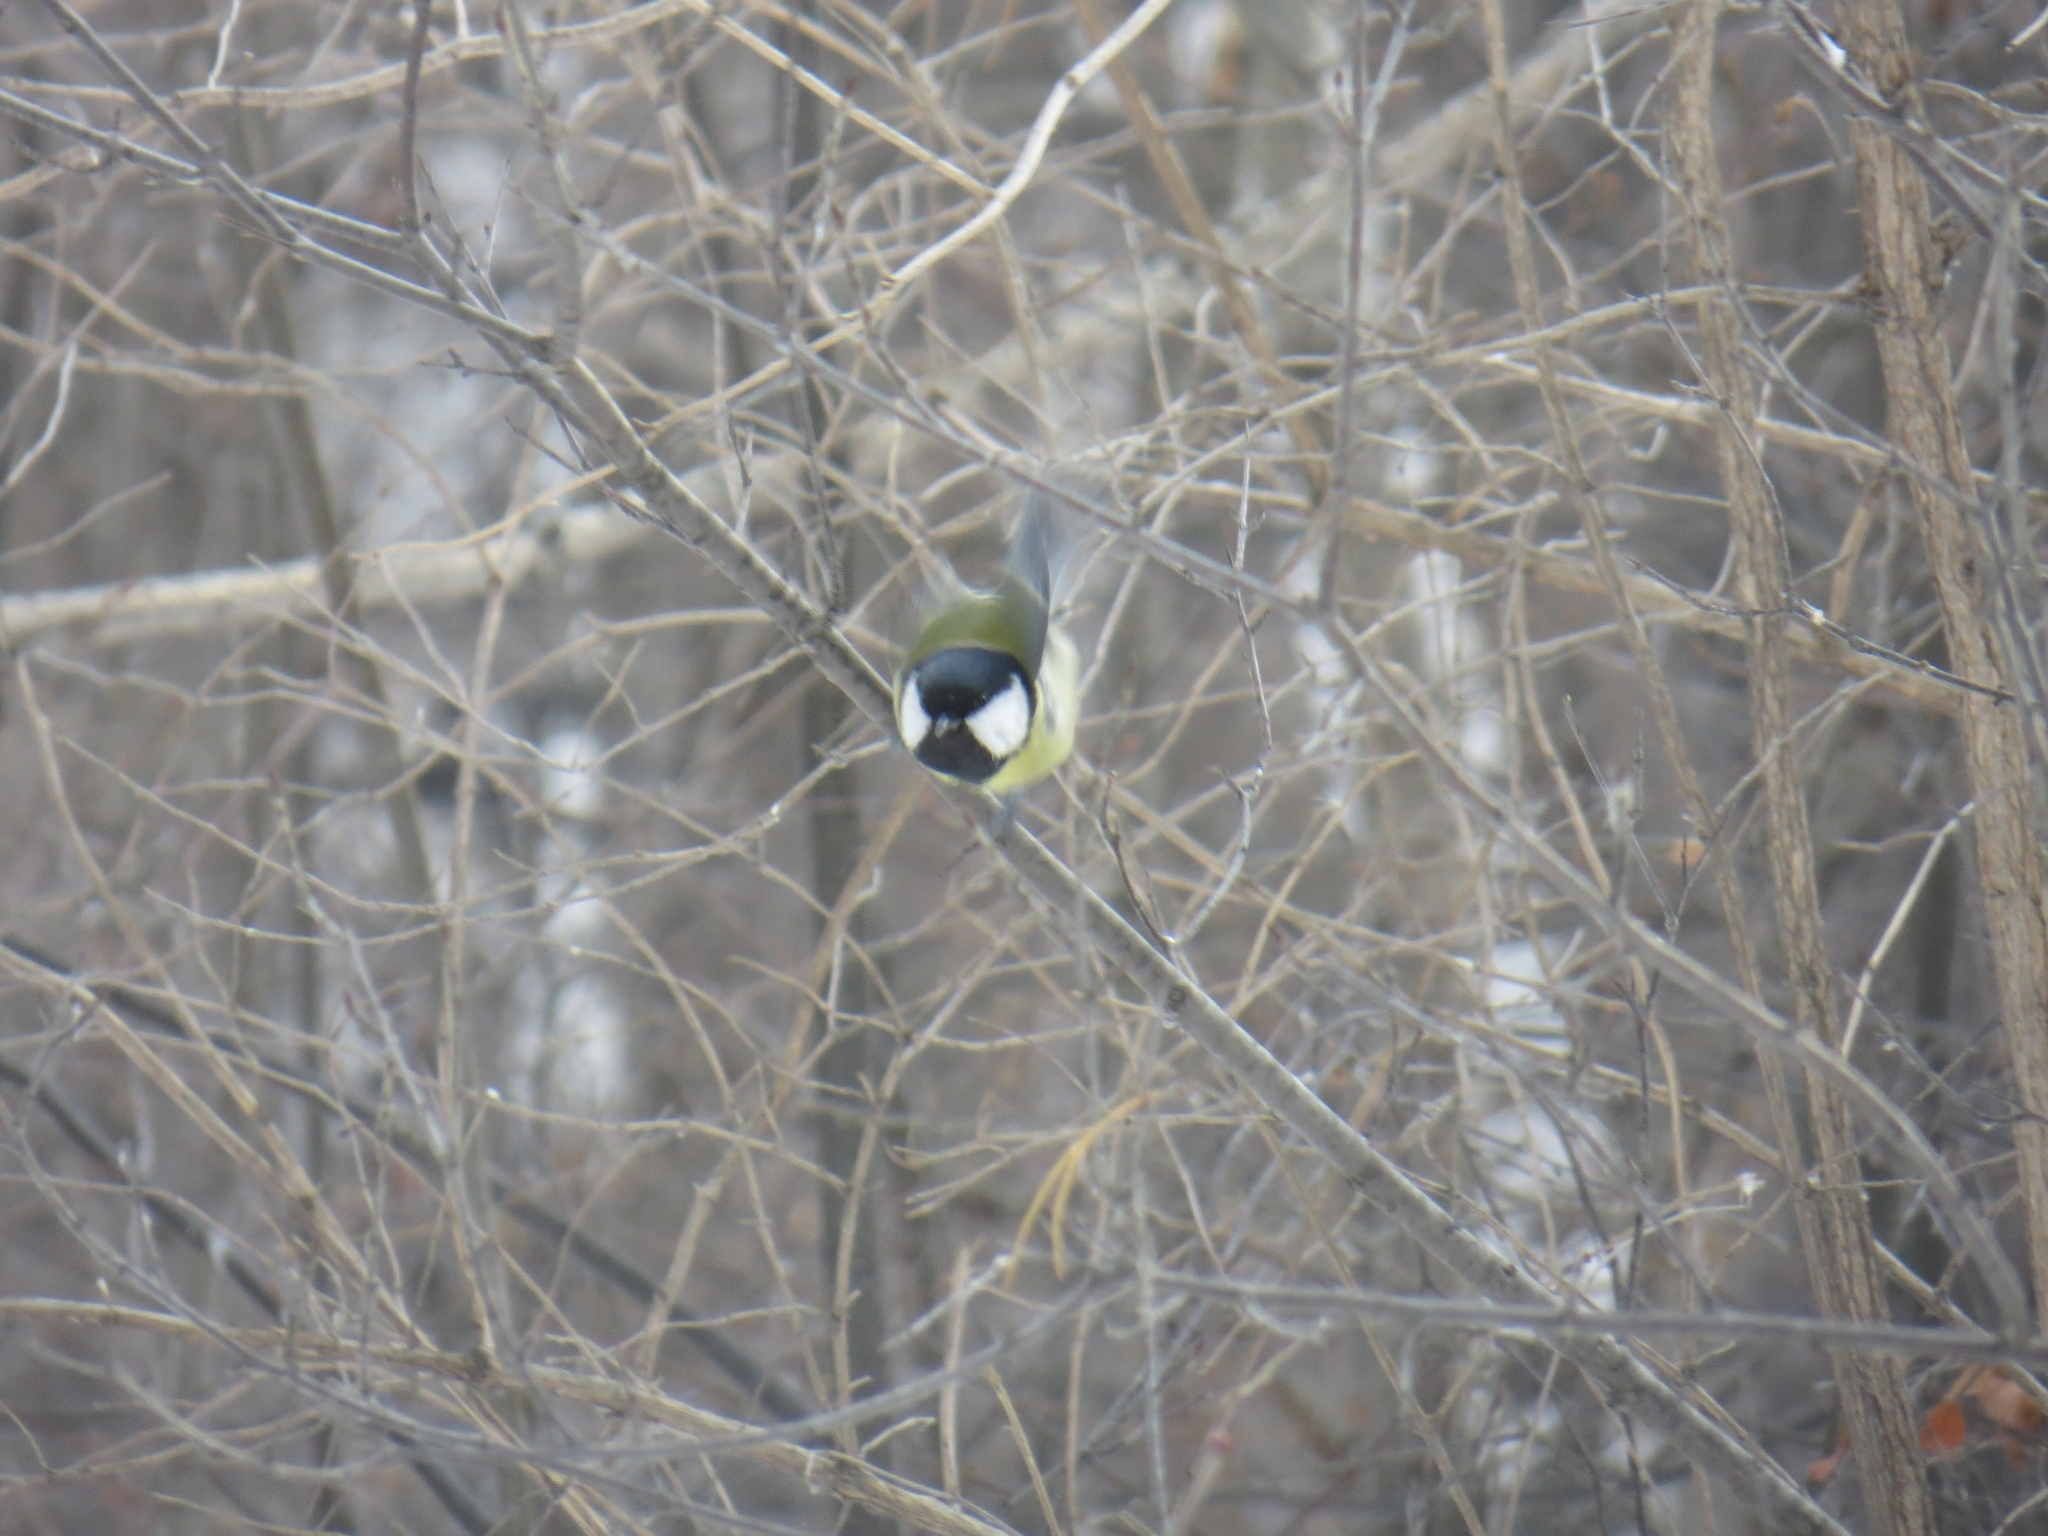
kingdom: Animalia
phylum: Chordata
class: Aves
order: Passeriformes
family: Paridae
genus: Parus
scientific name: Parus major
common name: Great tit
